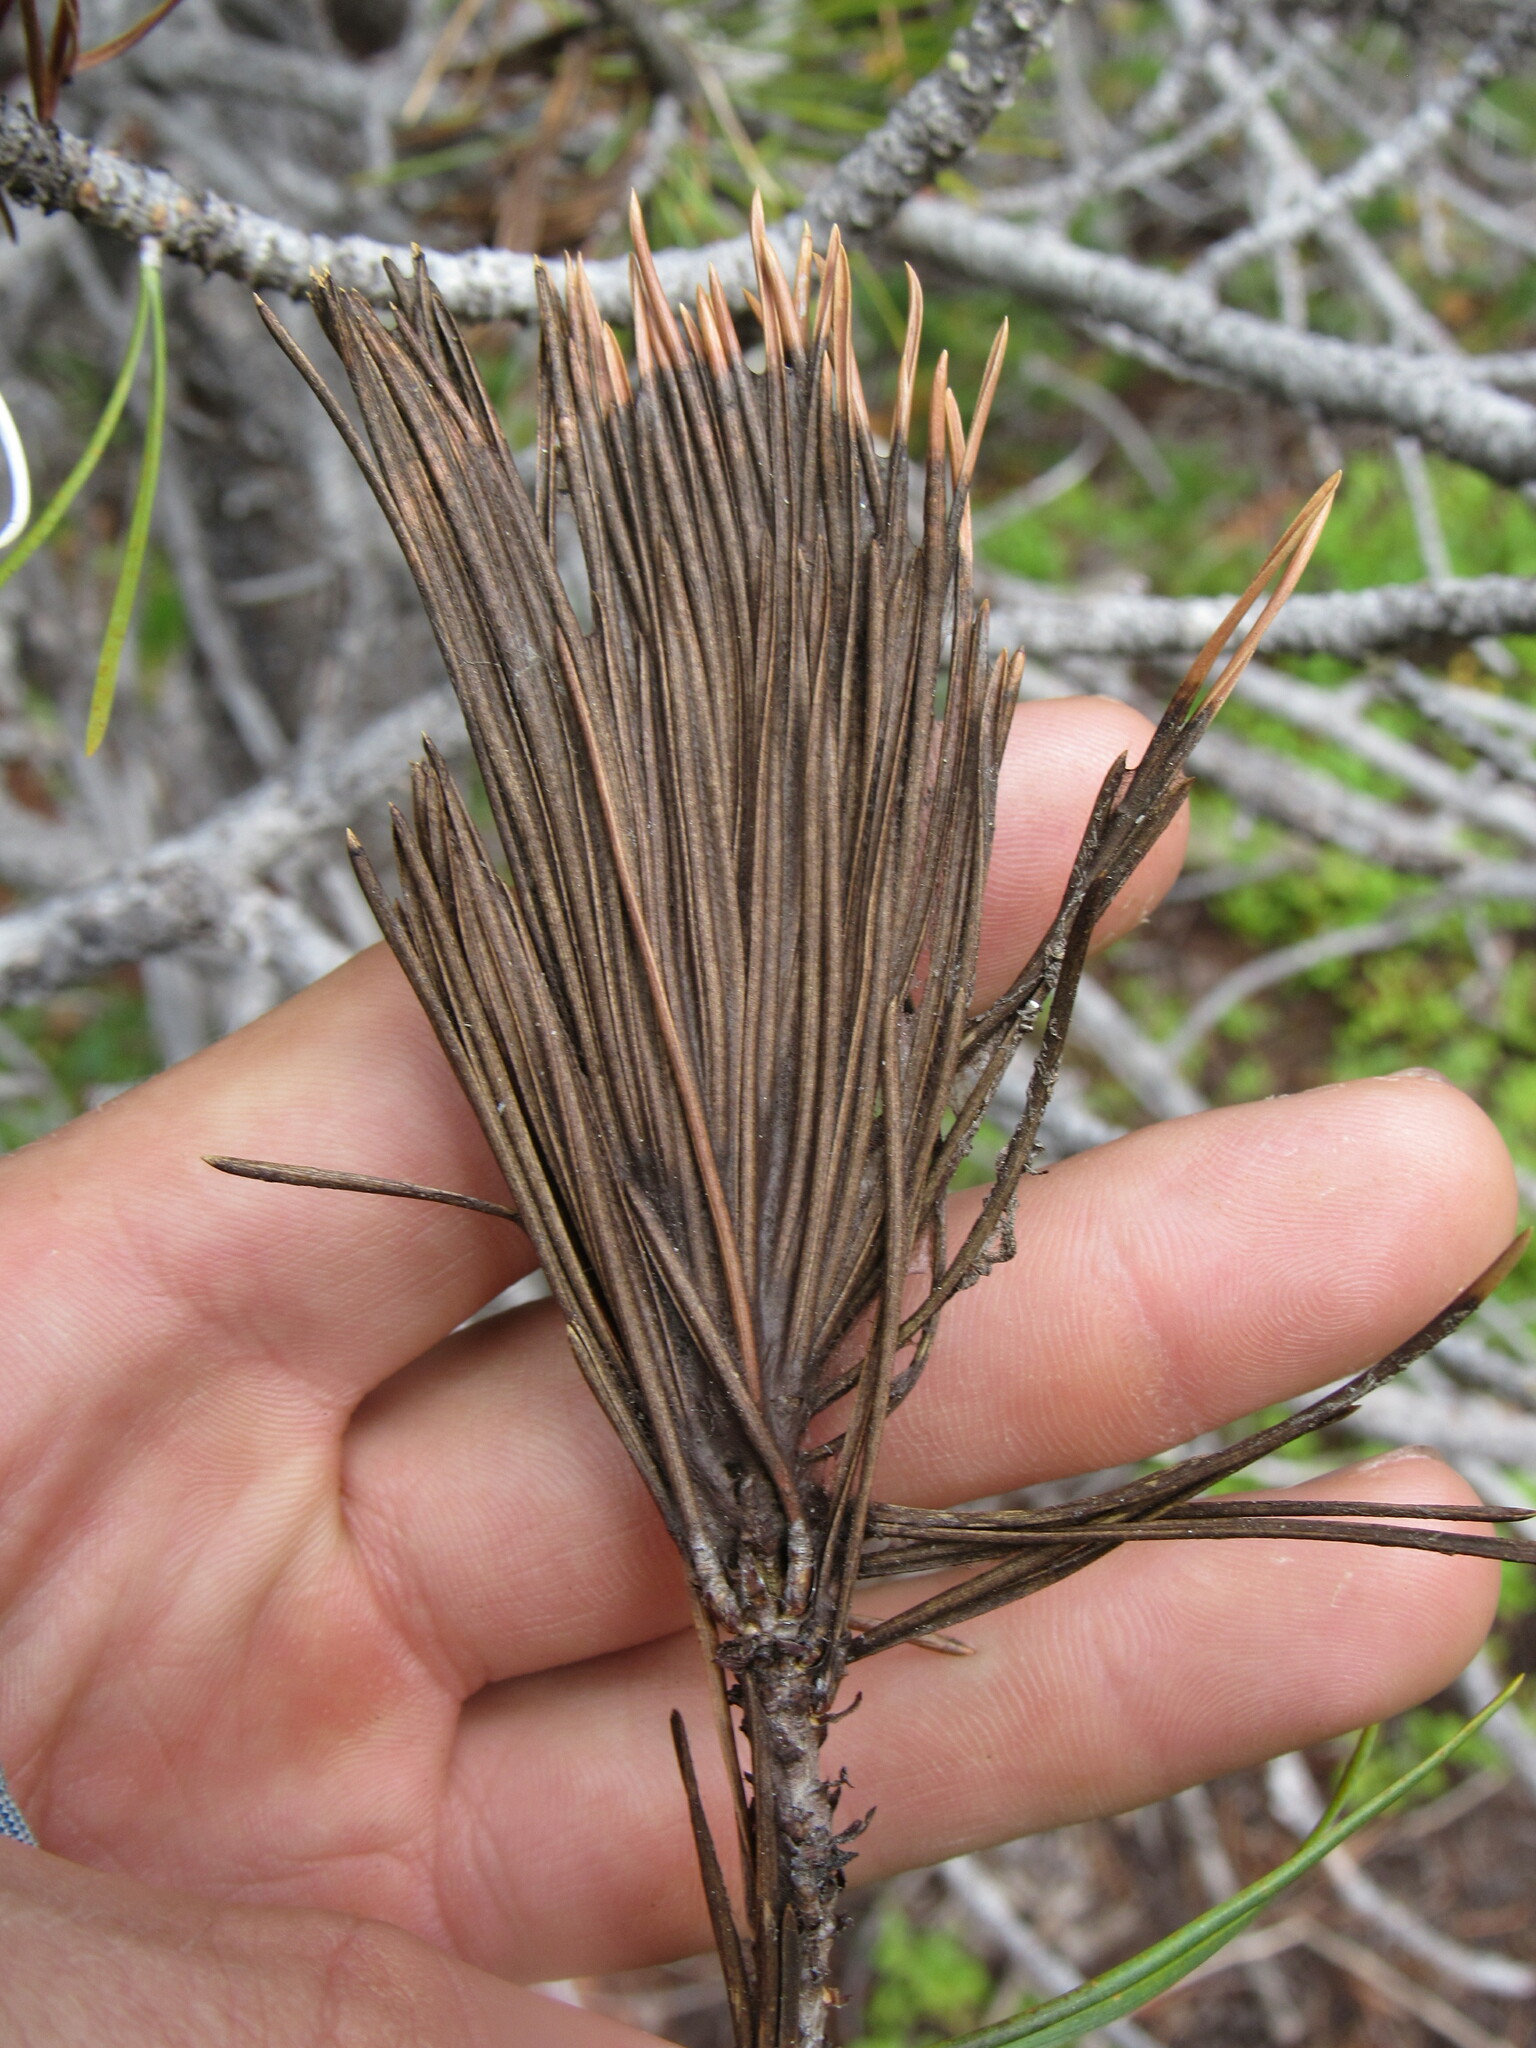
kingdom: Fungi
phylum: Ascomycota
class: Dothideomycetes
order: Pleosporales
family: Melanommataceae
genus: Herpotrichia
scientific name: Herpotrichia pinetorum
